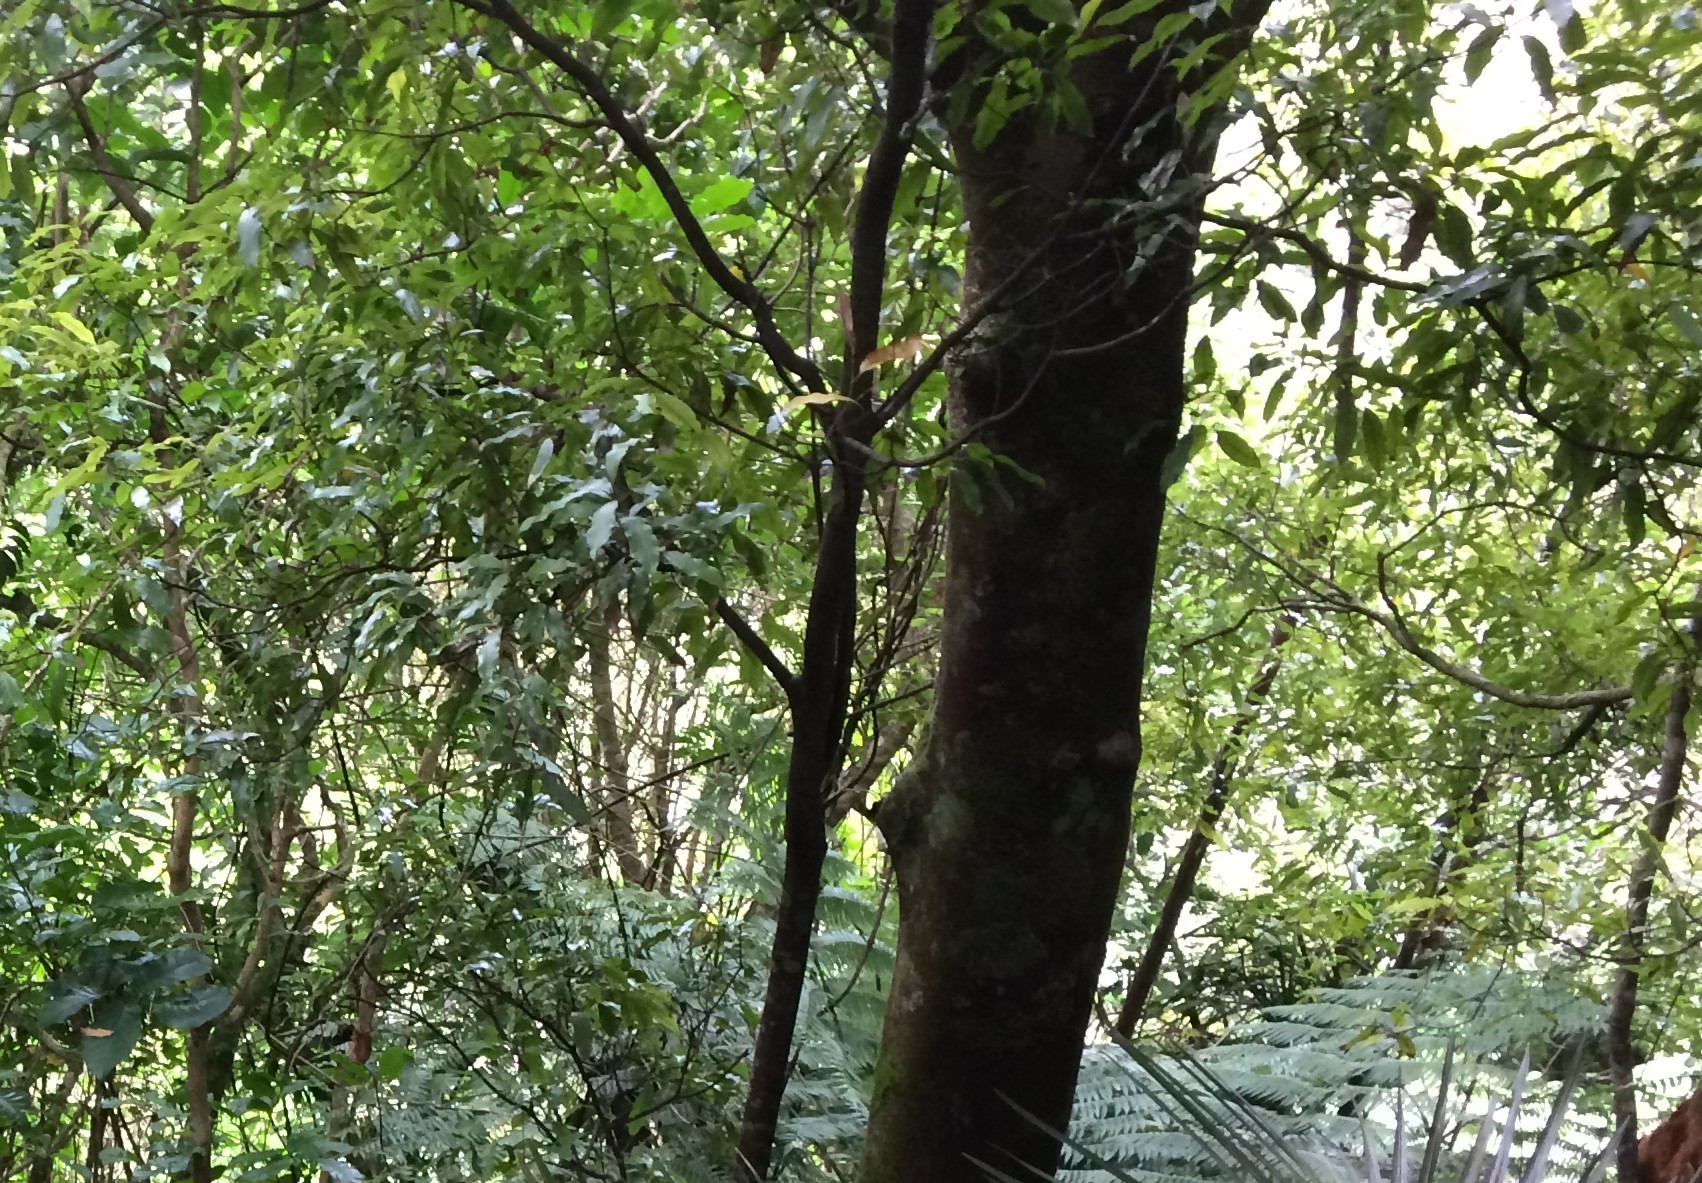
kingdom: Plantae
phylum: Tracheophyta
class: Magnoliopsida
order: Laurales
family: Lauraceae
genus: Beilschmiedia
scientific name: Beilschmiedia tawa
